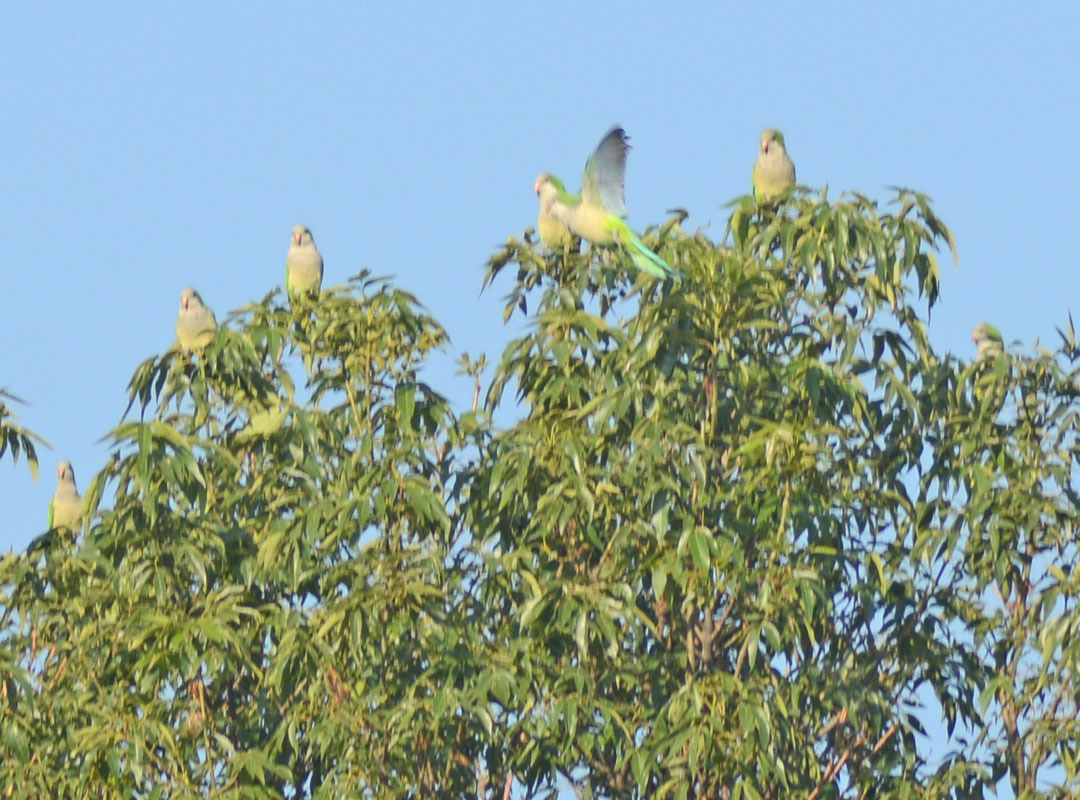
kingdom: Animalia
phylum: Chordata
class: Aves
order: Psittaciformes
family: Psittacidae
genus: Myiopsitta
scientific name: Myiopsitta monachus
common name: Monk parakeet
